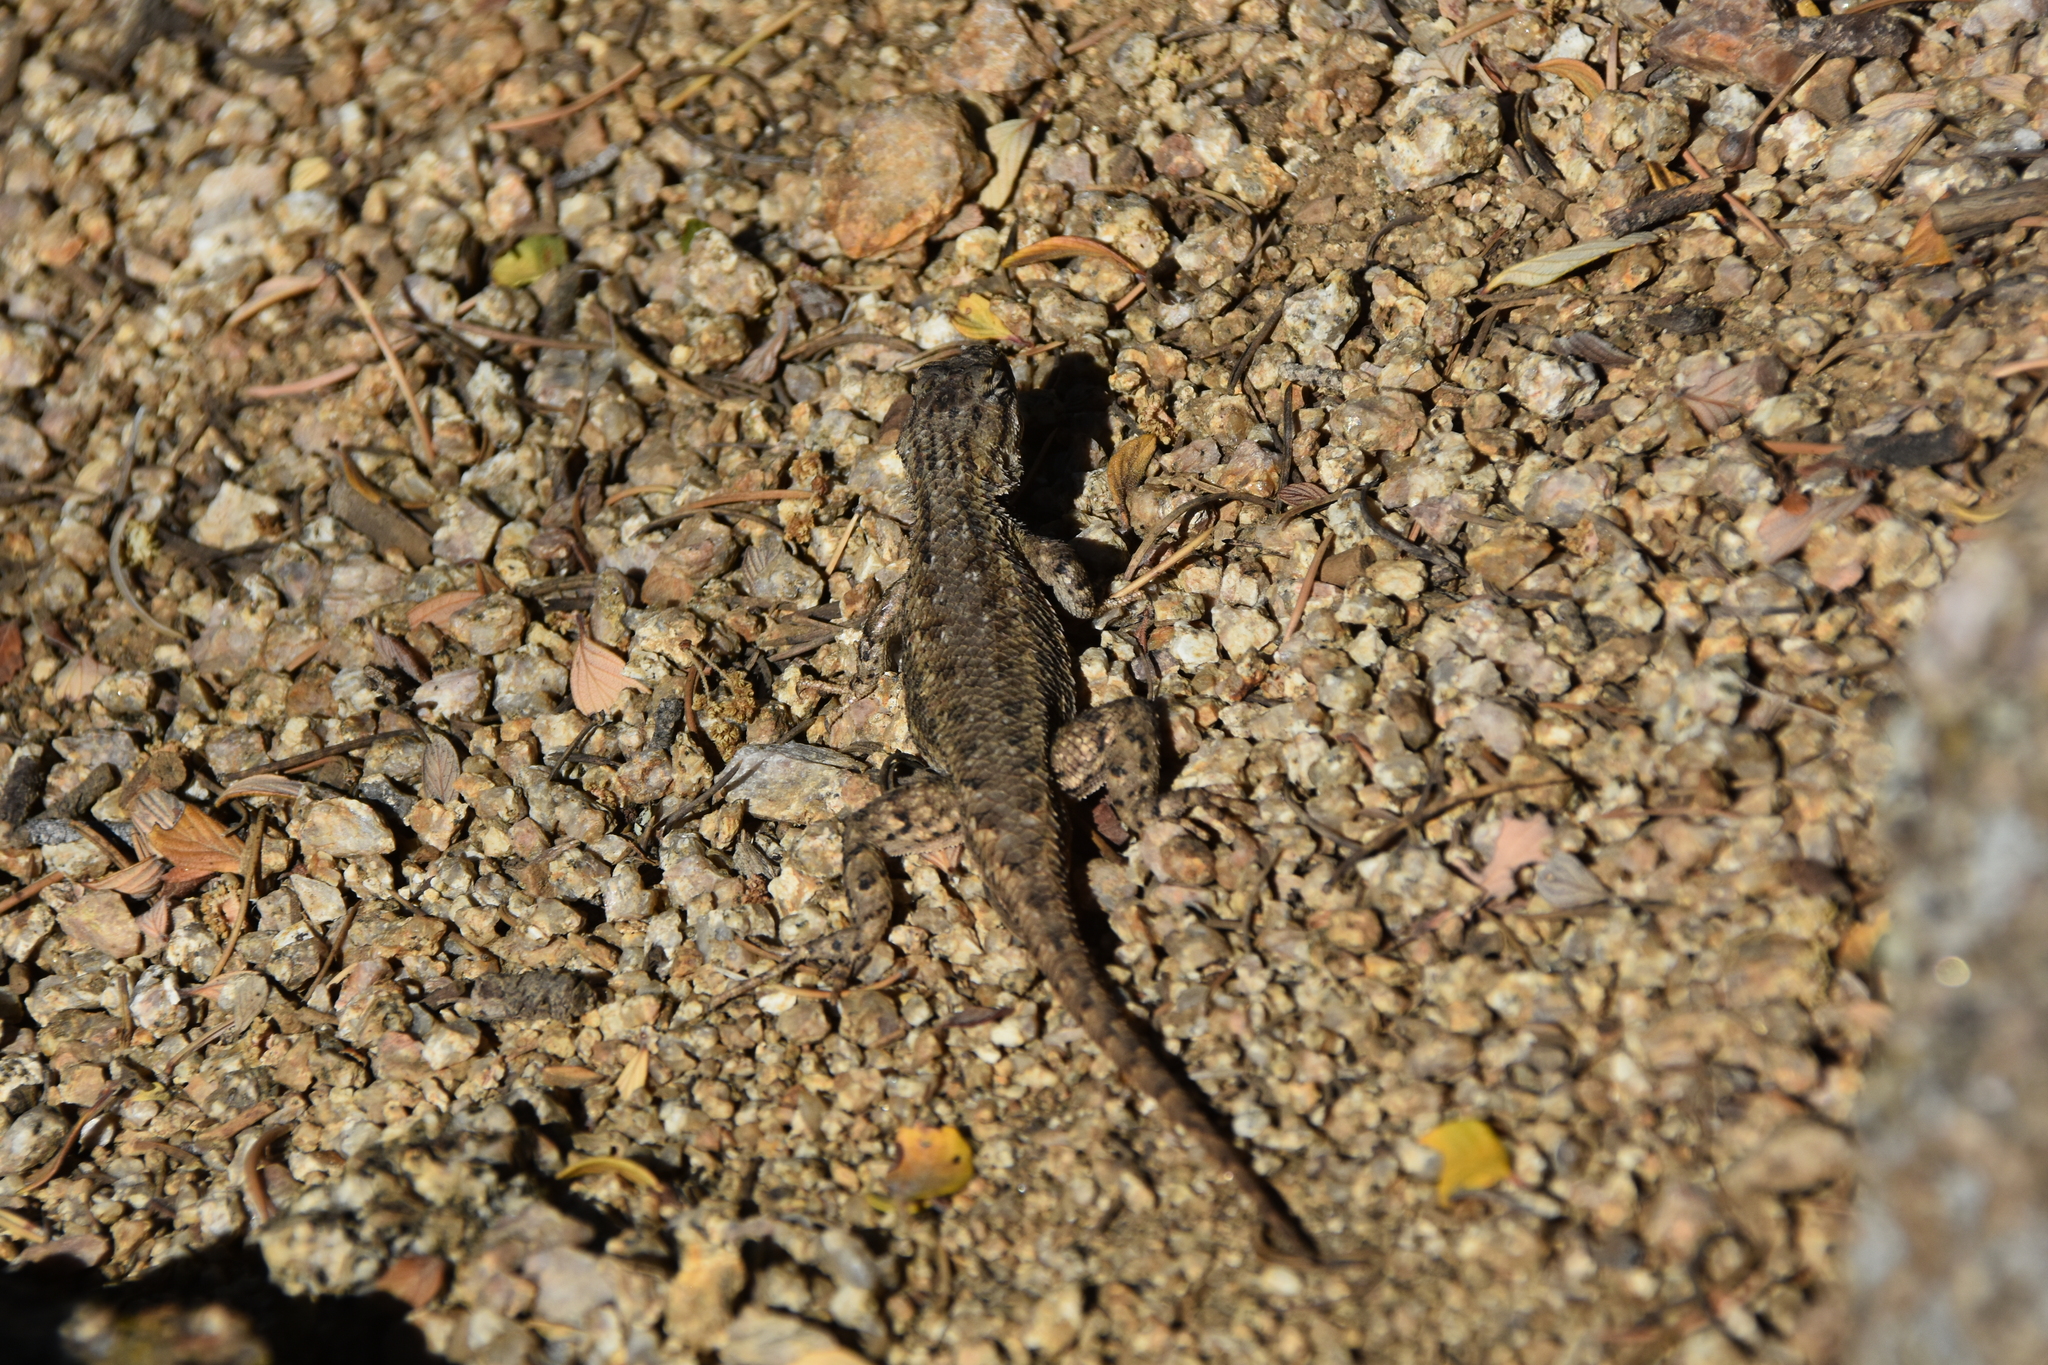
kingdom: Animalia
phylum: Chordata
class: Squamata
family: Phrynosomatidae
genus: Sceloporus
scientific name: Sceloporus cowlesi
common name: White sands prairie lizard
